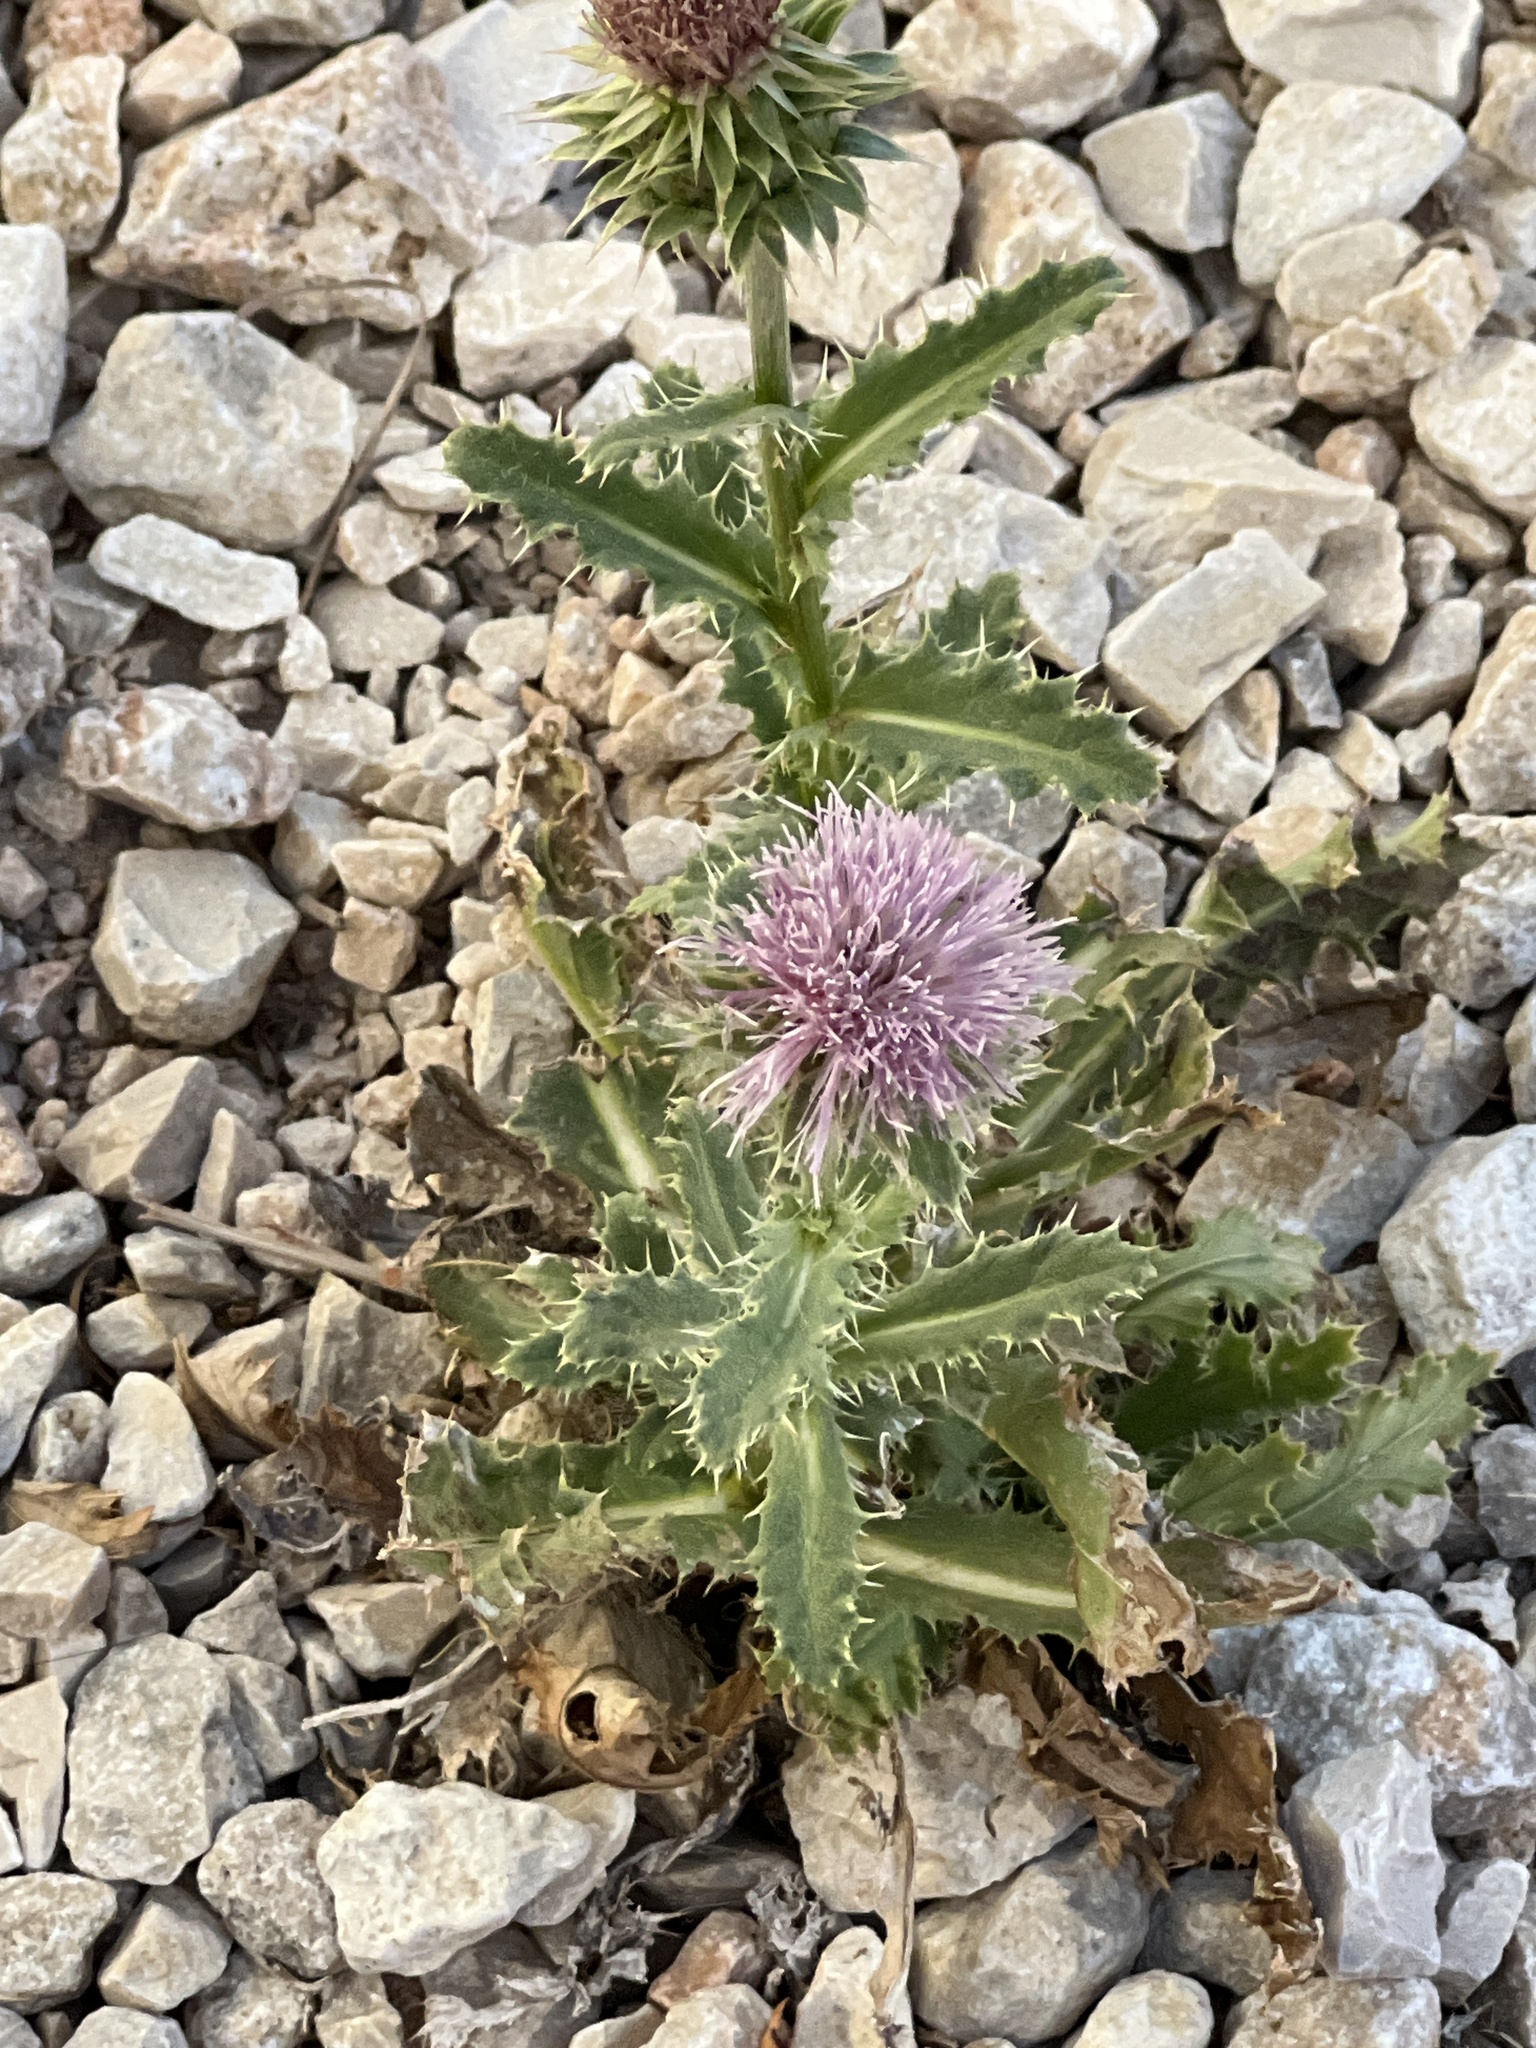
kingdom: Plantae
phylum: Tracheophyta
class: Magnoliopsida
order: Asterales
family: Asteraceae
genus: Carduus
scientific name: Carduus nutans
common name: Musk thistle
